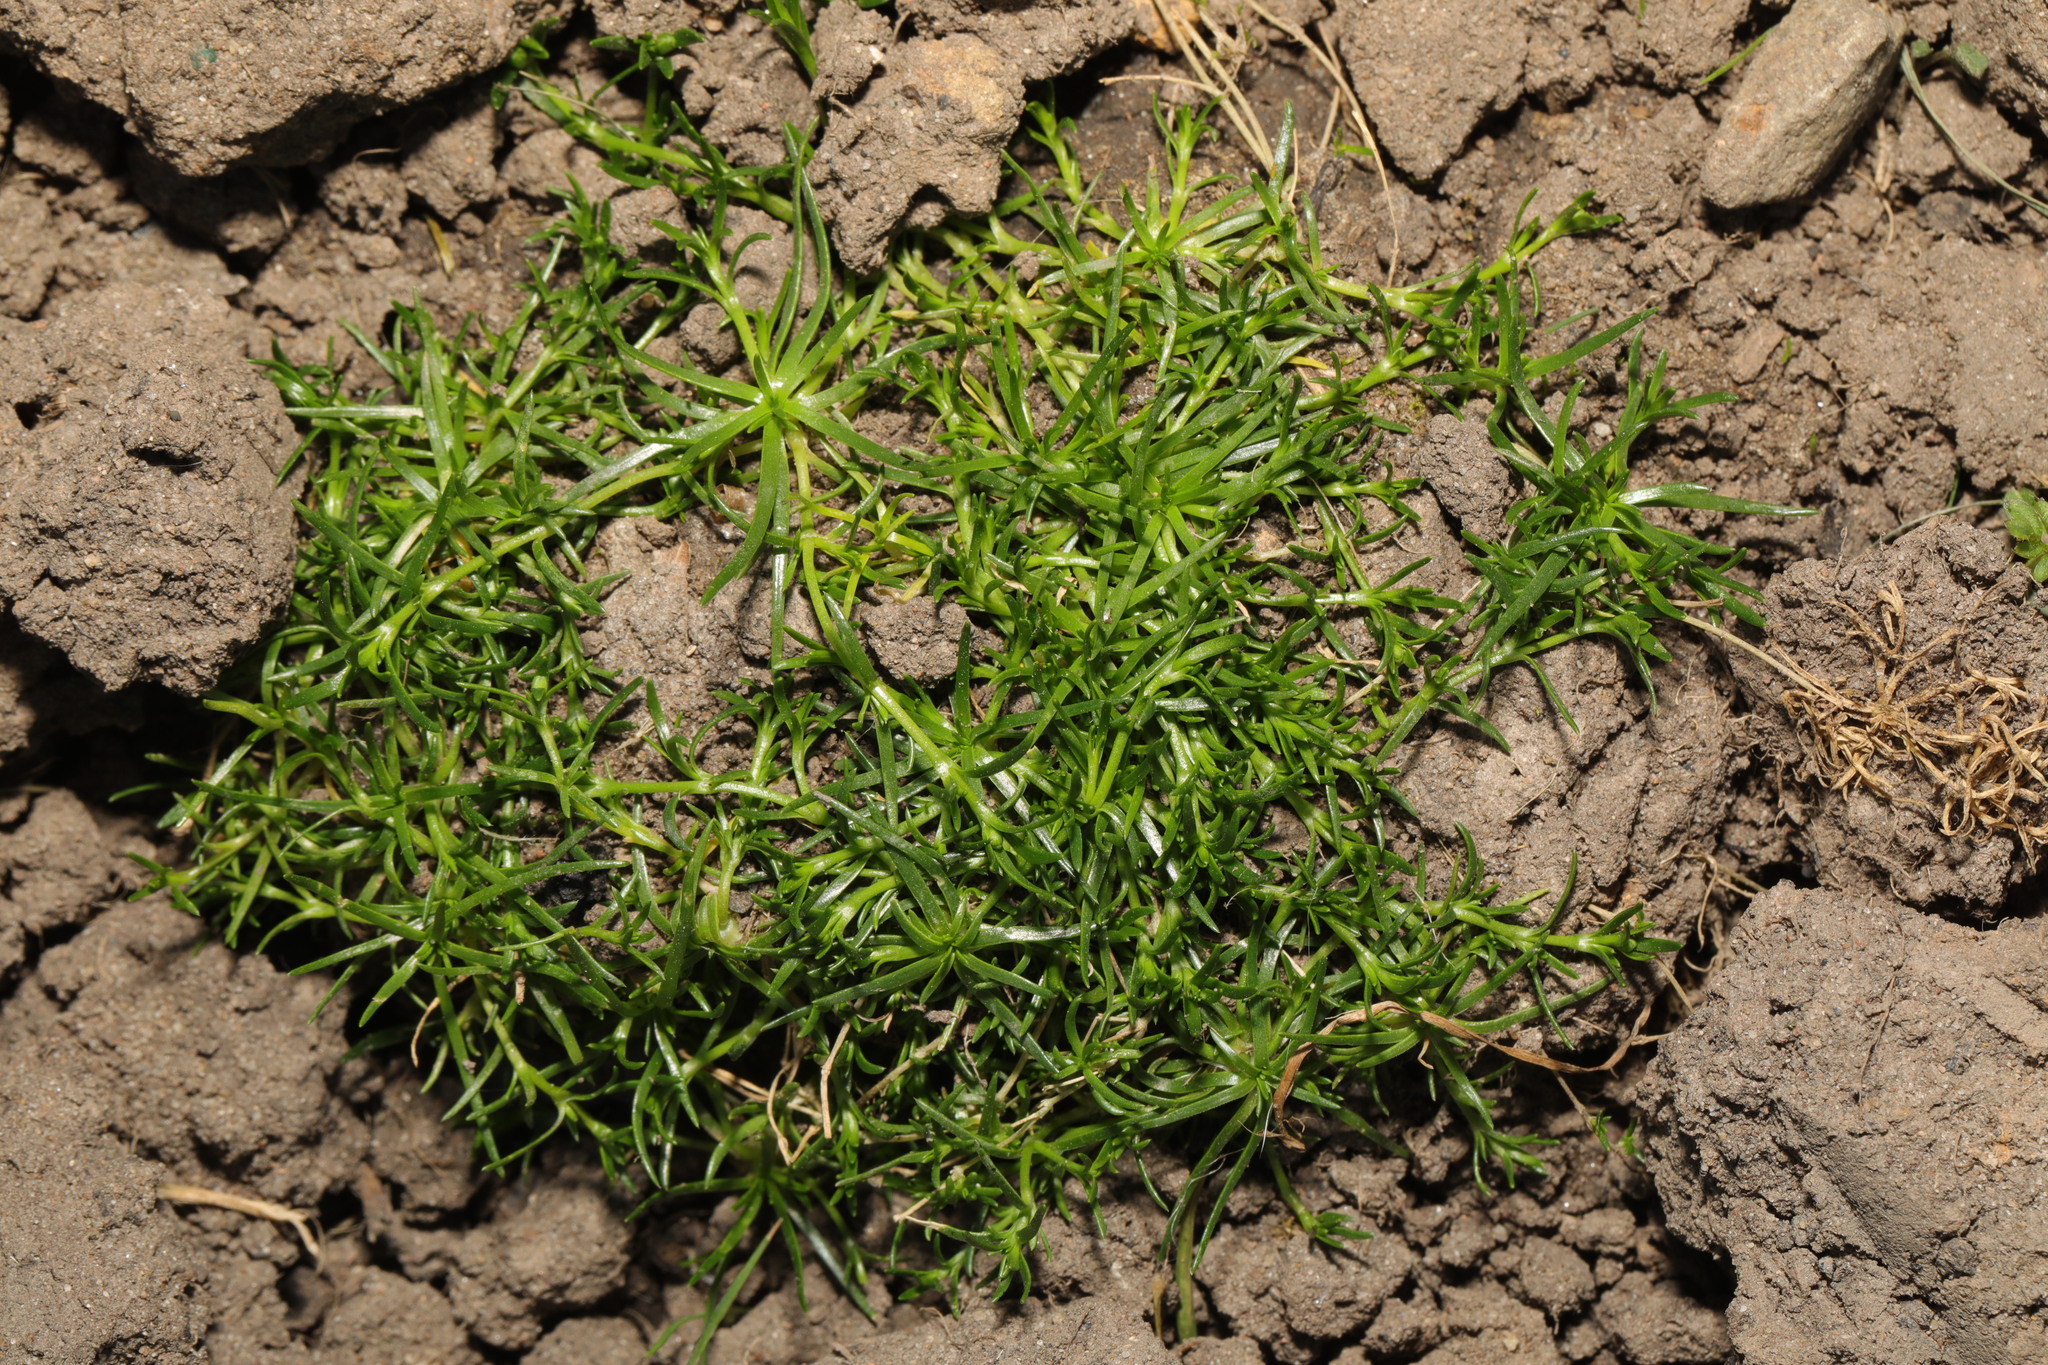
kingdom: Plantae
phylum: Tracheophyta
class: Magnoliopsida
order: Caryophyllales
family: Caryophyllaceae
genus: Sagina
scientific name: Sagina procumbens
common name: Procumbent pearlwort
